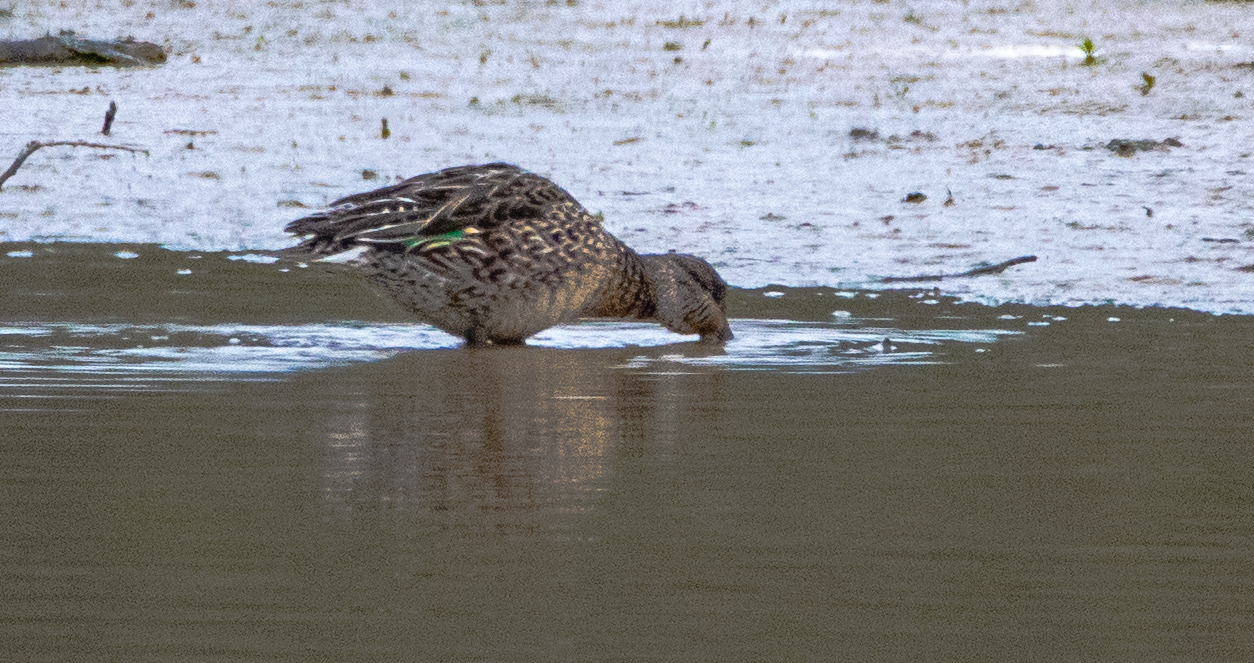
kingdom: Animalia
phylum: Chordata
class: Aves
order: Anseriformes
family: Anatidae
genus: Anas
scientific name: Anas crecca
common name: Eurasian teal
